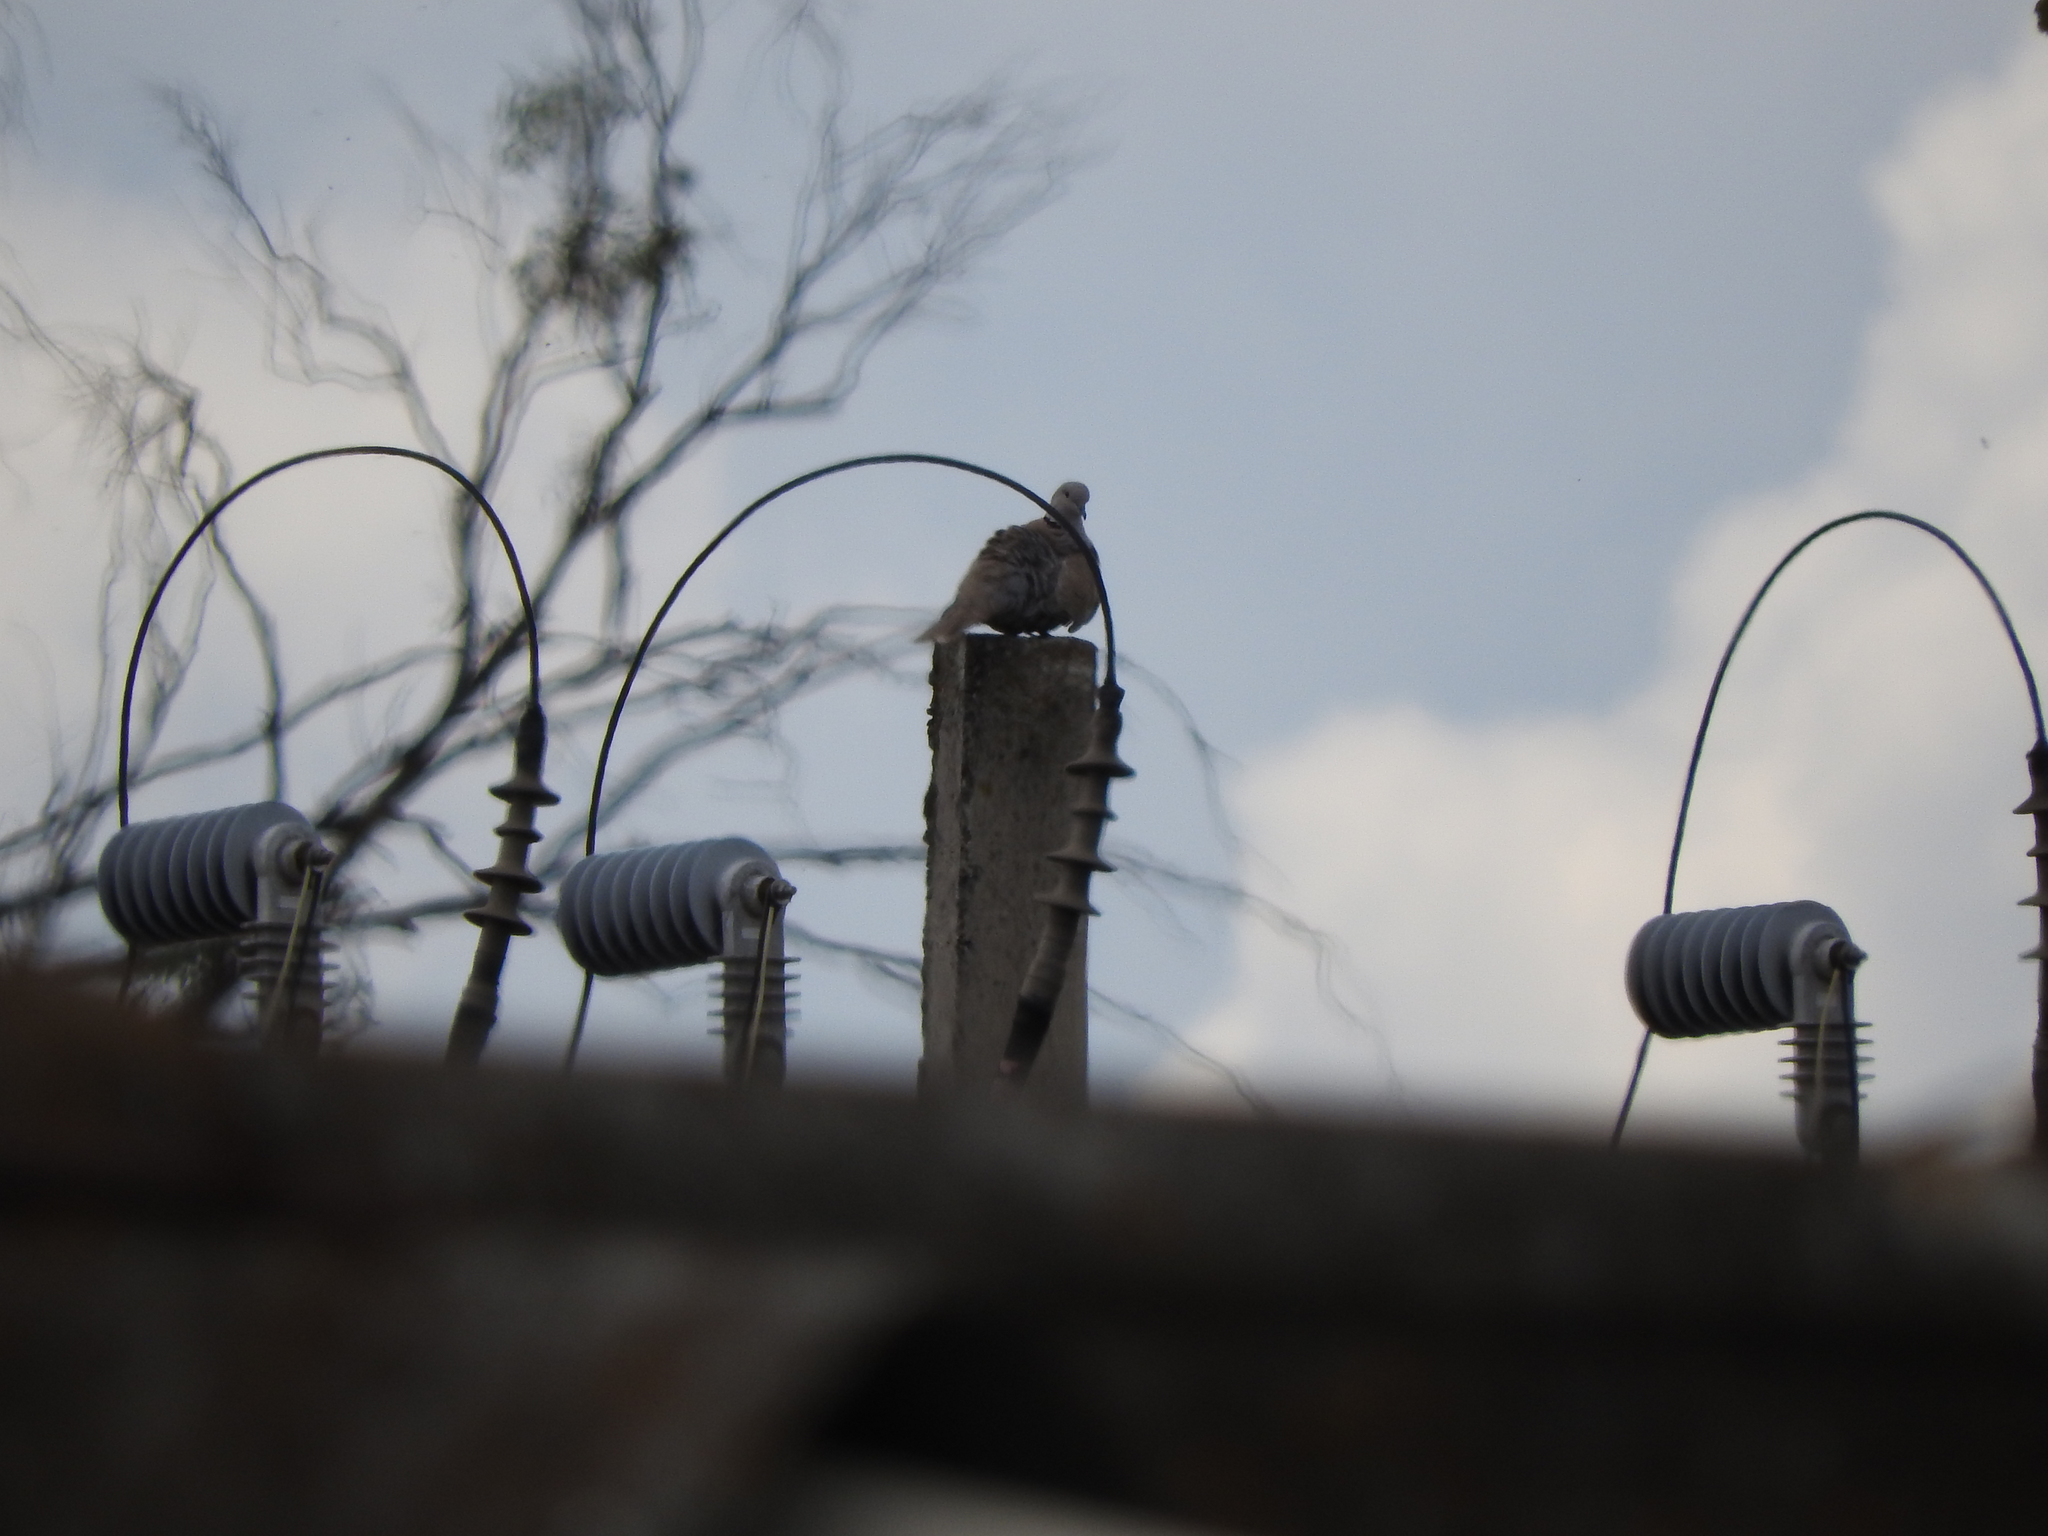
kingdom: Animalia
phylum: Chordata
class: Aves
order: Columbiformes
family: Columbidae
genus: Streptopelia
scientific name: Streptopelia decaocto
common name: Eurasian collared dove
